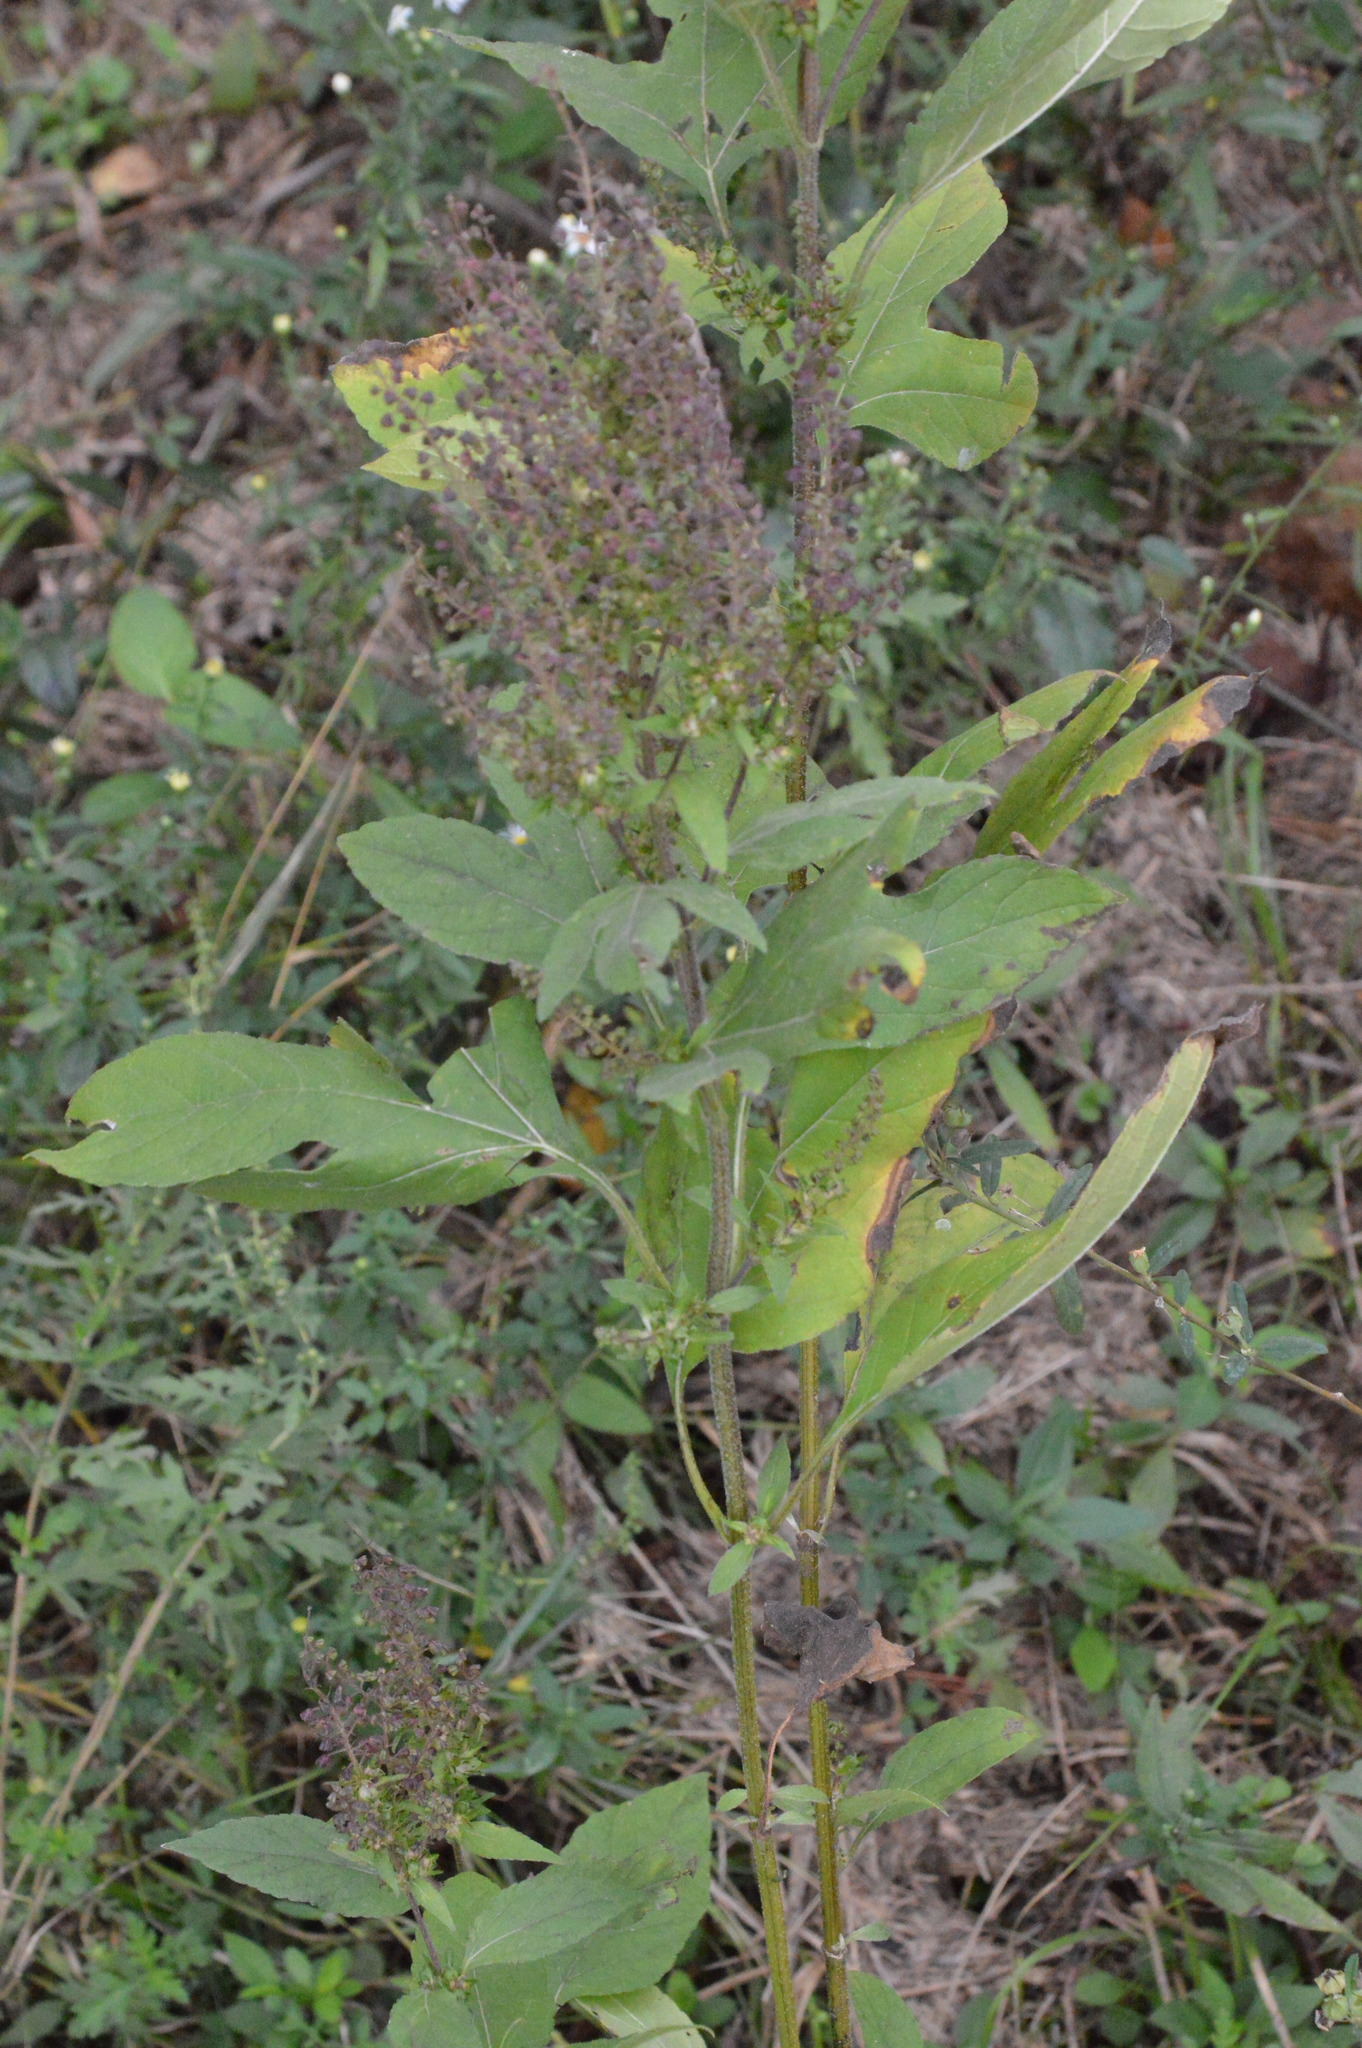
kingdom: Plantae
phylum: Tracheophyta
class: Magnoliopsida
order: Asterales
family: Asteraceae
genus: Ambrosia
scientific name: Ambrosia trifida
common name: Giant ragweed
